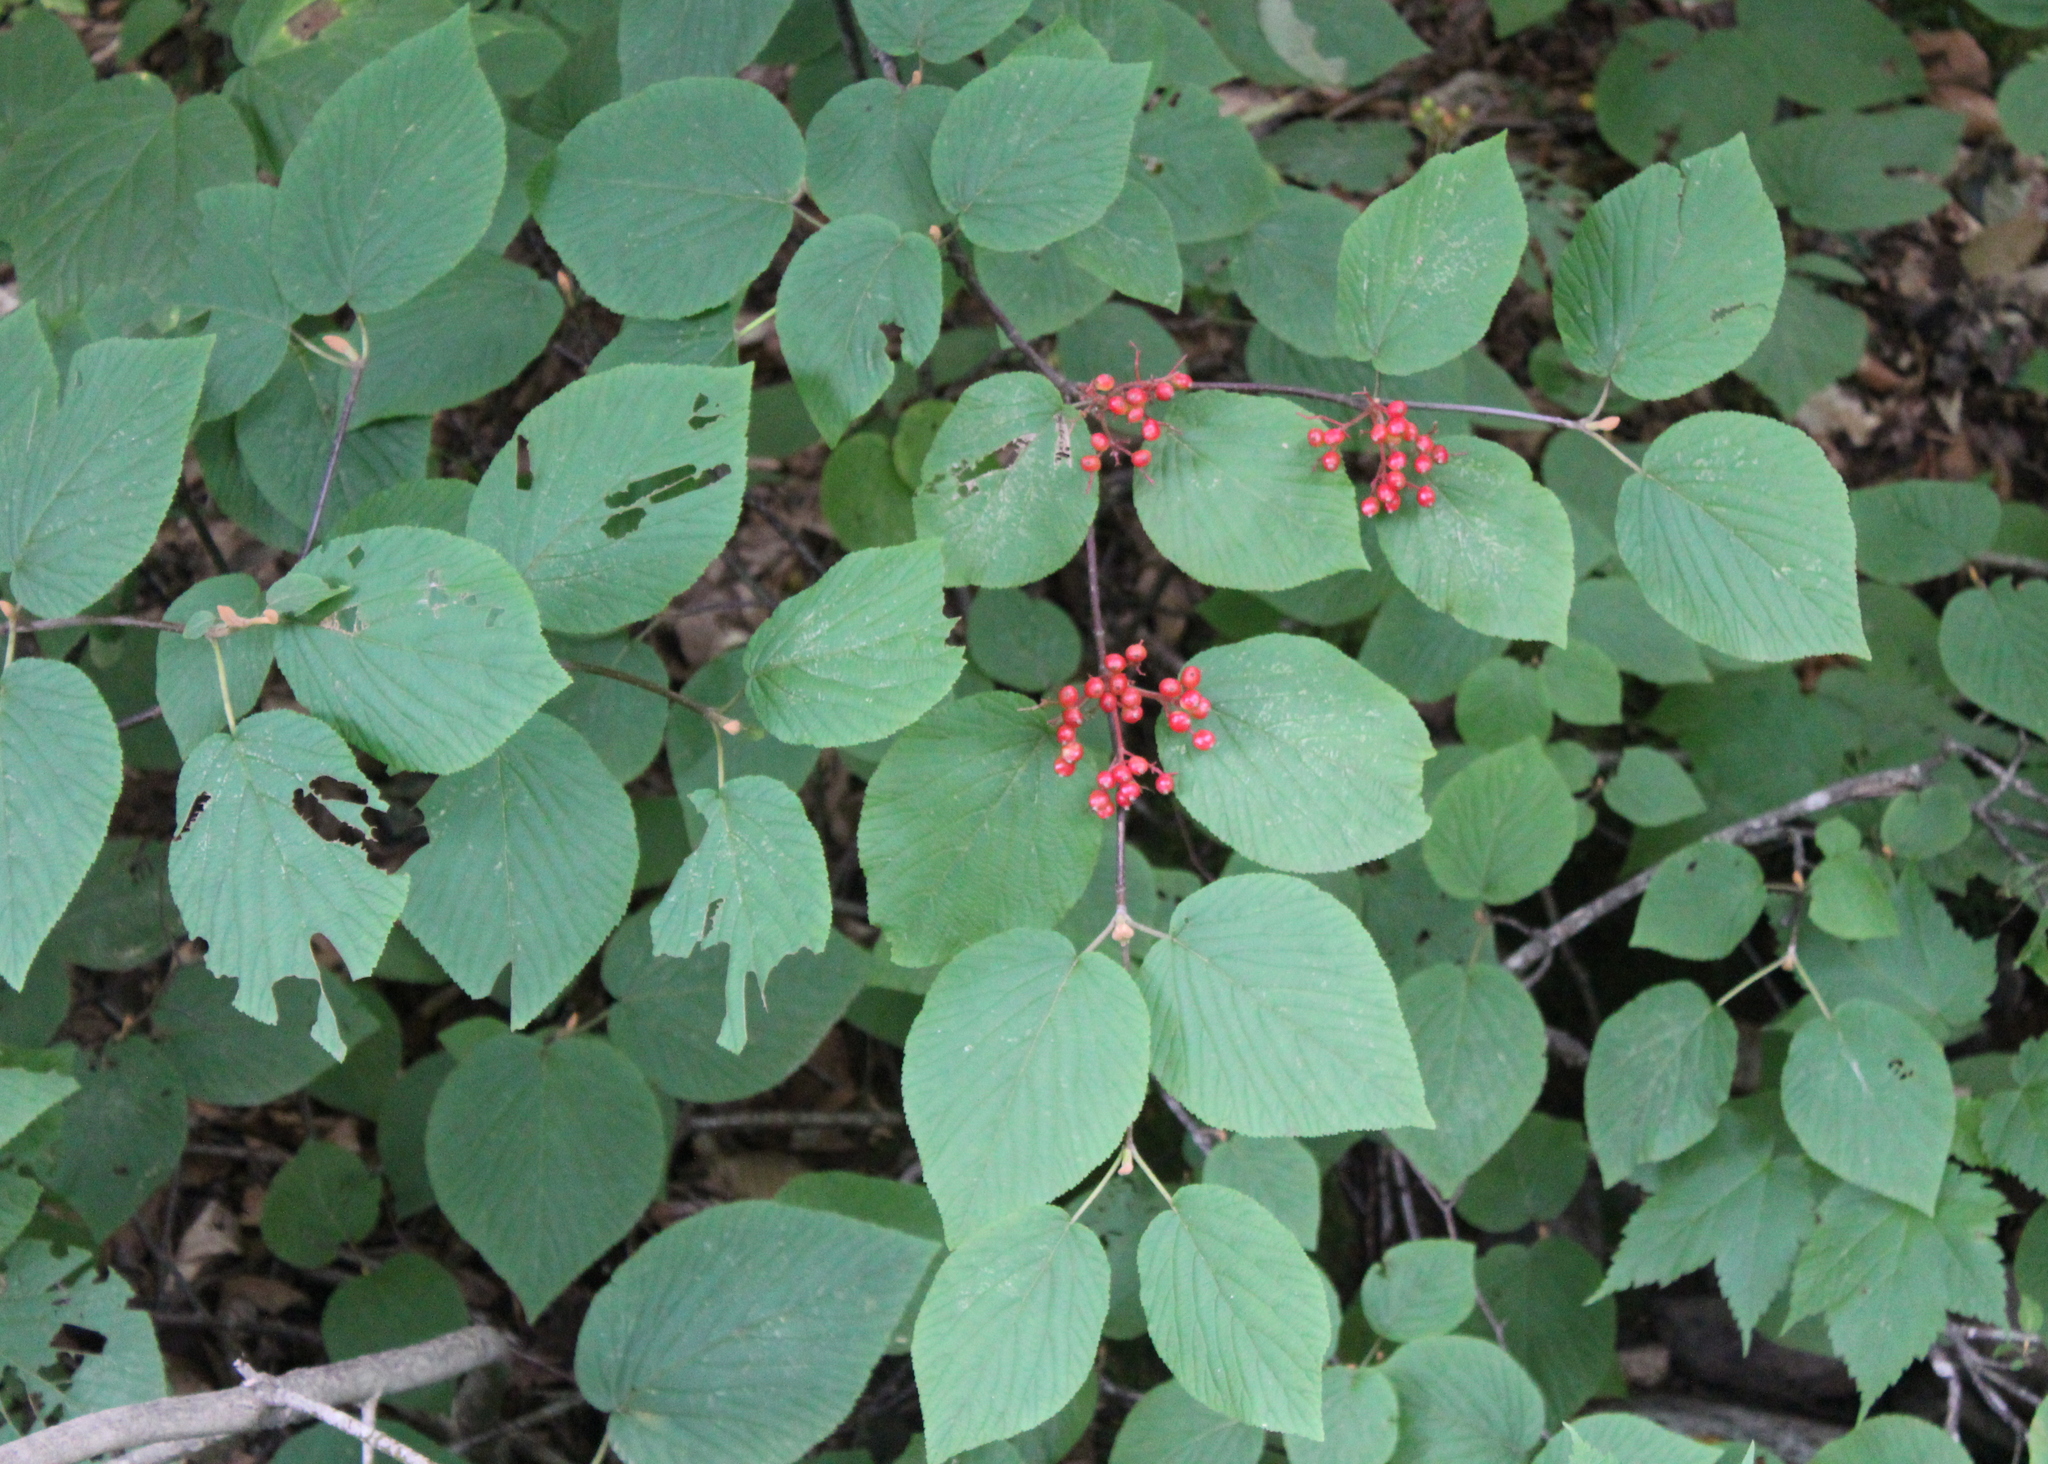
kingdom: Plantae
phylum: Tracheophyta
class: Magnoliopsida
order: Dipsacales
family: Viburnaceae
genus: Viburnum
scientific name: Viburnum lantanoides
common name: Hobblebush
